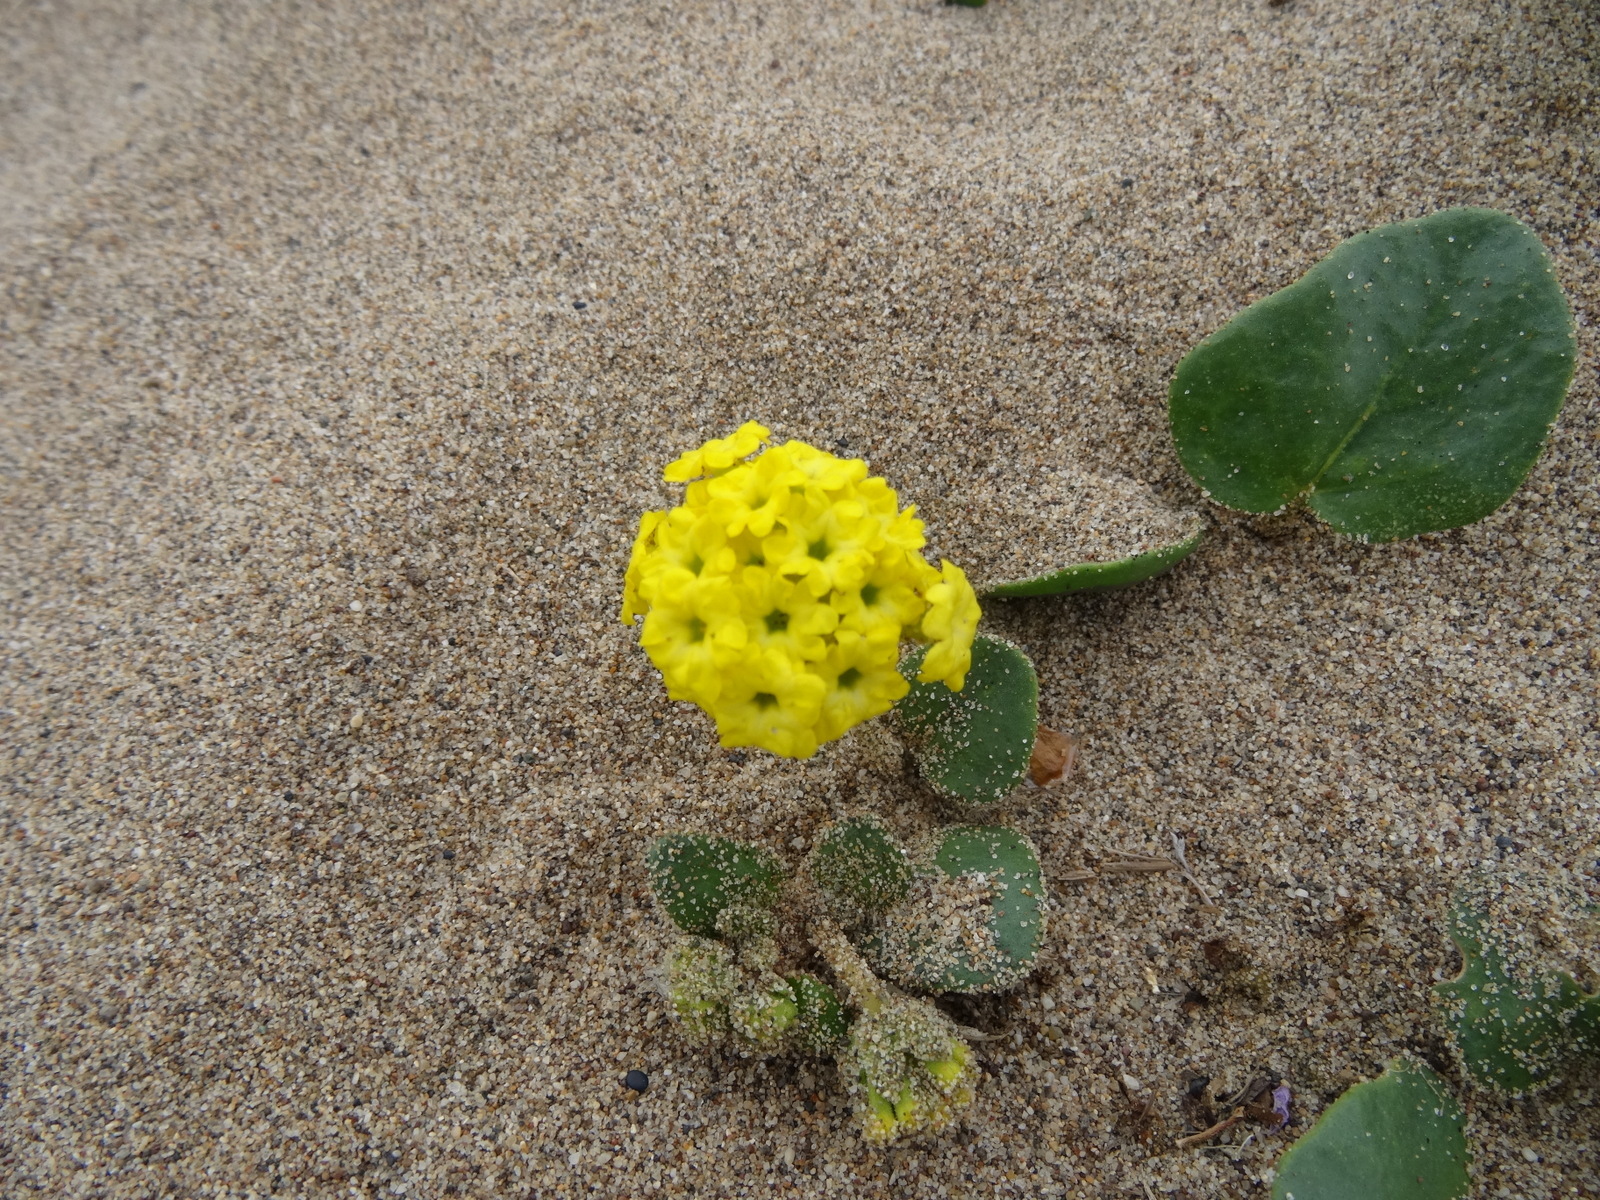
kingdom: Plantae
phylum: Tracheophyta
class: Magnoliopsida
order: Caryophyllales
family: Nyctaginaceae
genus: Abronia
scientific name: Abronia latifolia
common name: Yellow sand-verbena
